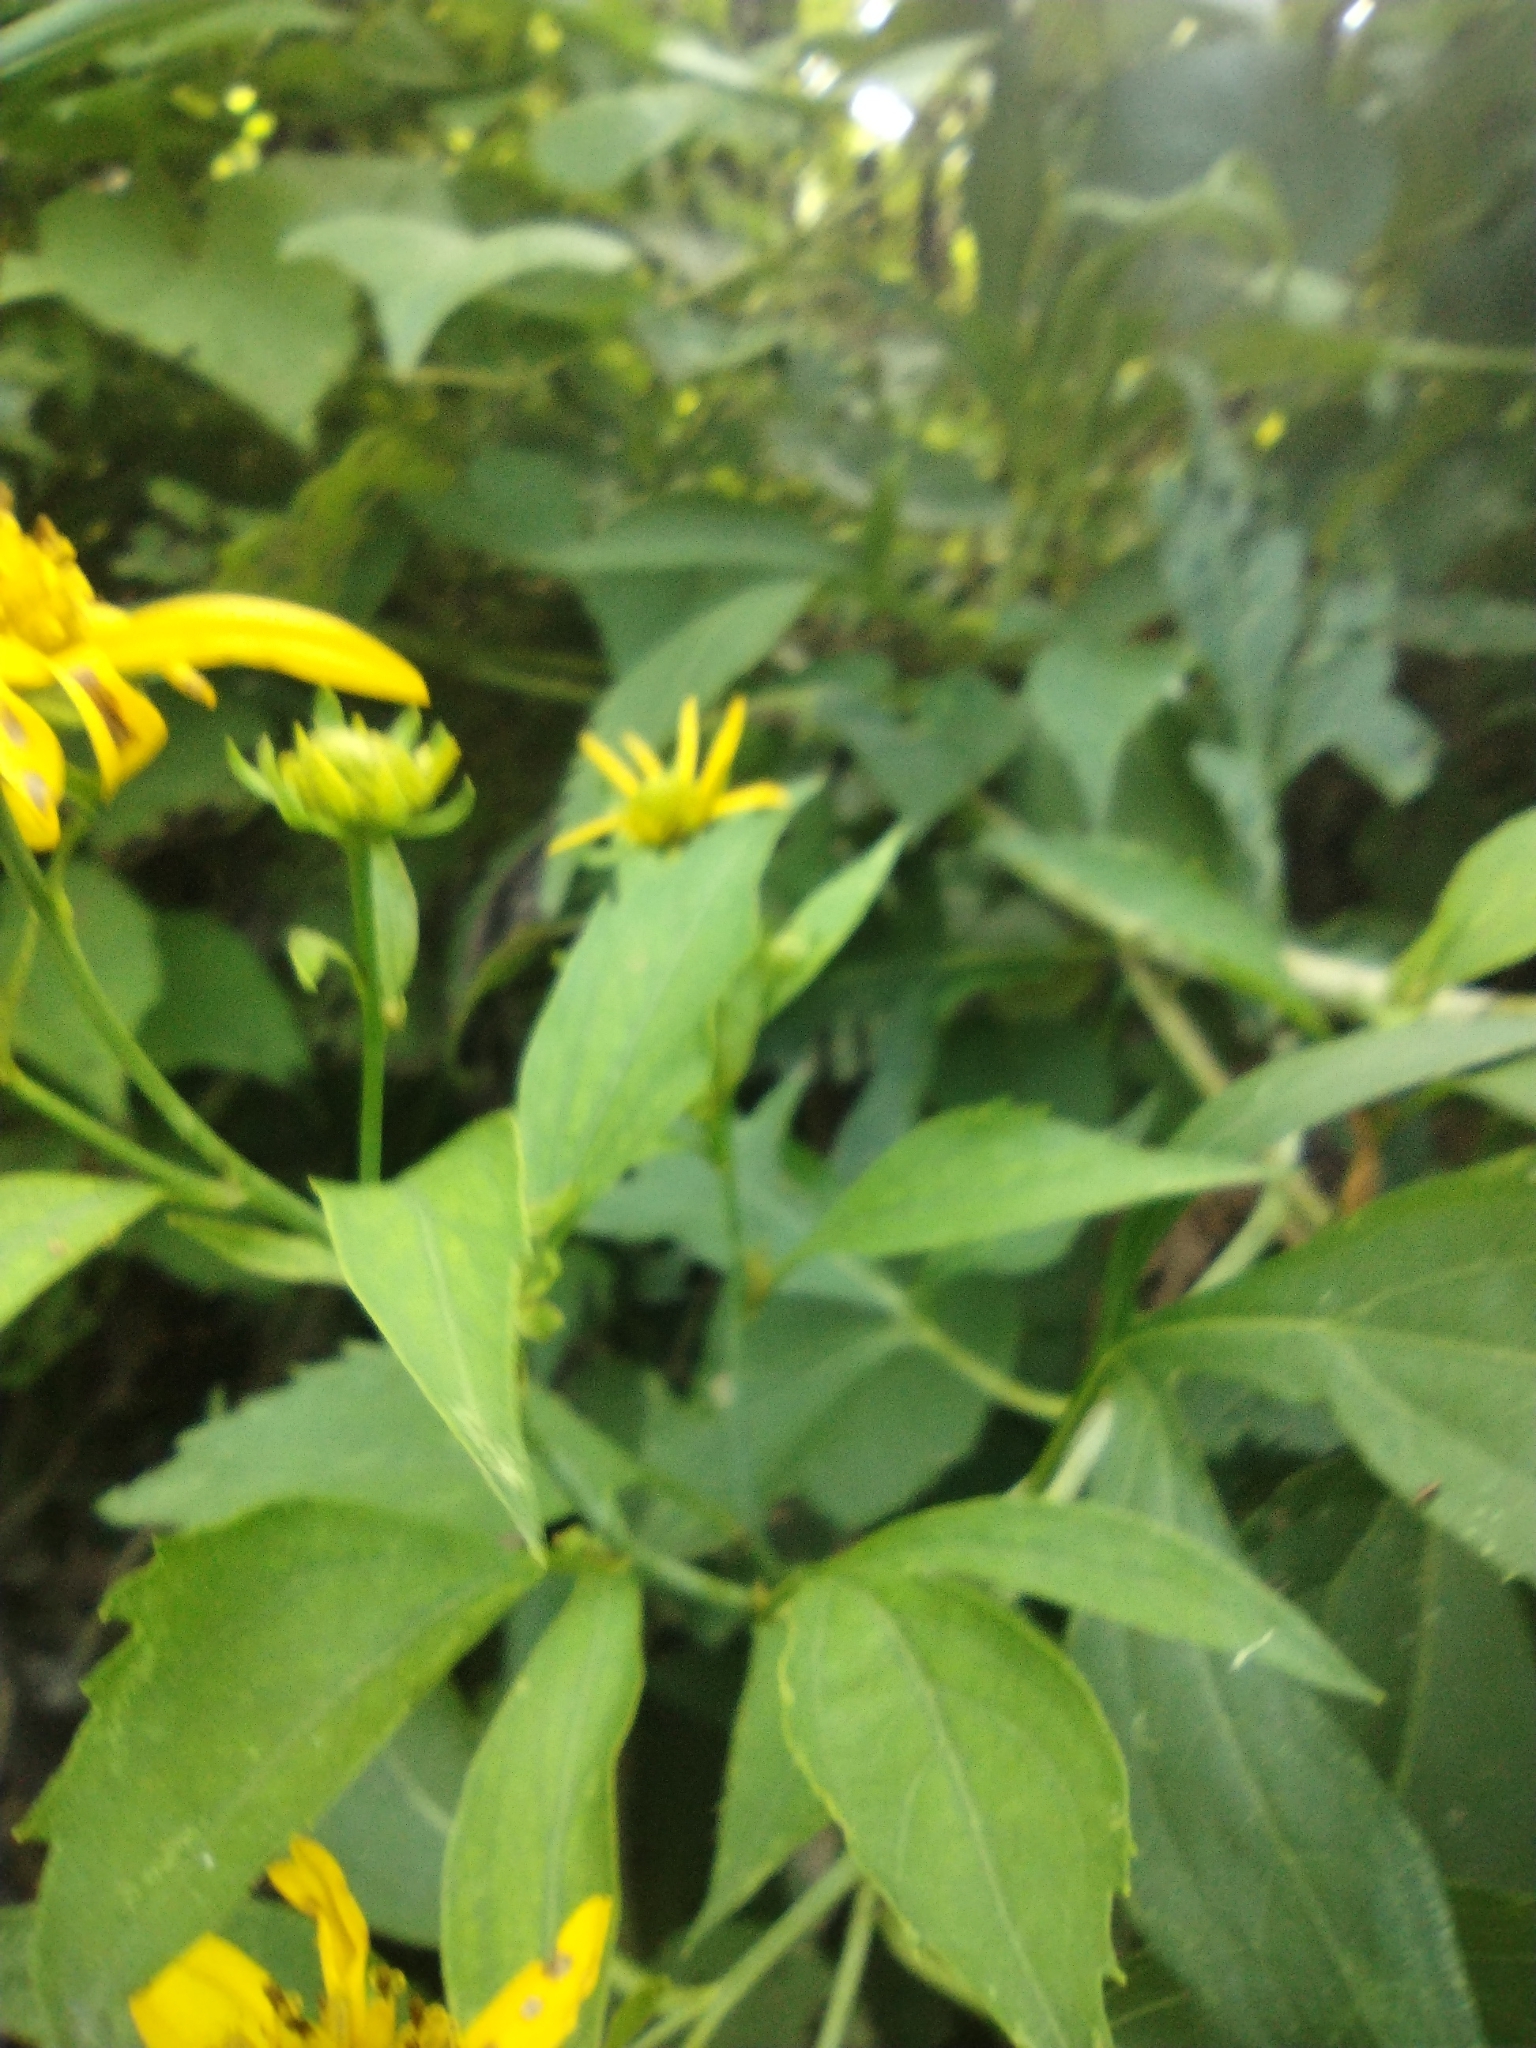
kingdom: Plantae
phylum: Tracheophyta
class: Magnoliopsida
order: Asterales
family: Asteraceae
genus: Rudbeckia
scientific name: Rudbeckia laciniata
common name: Coneflower
